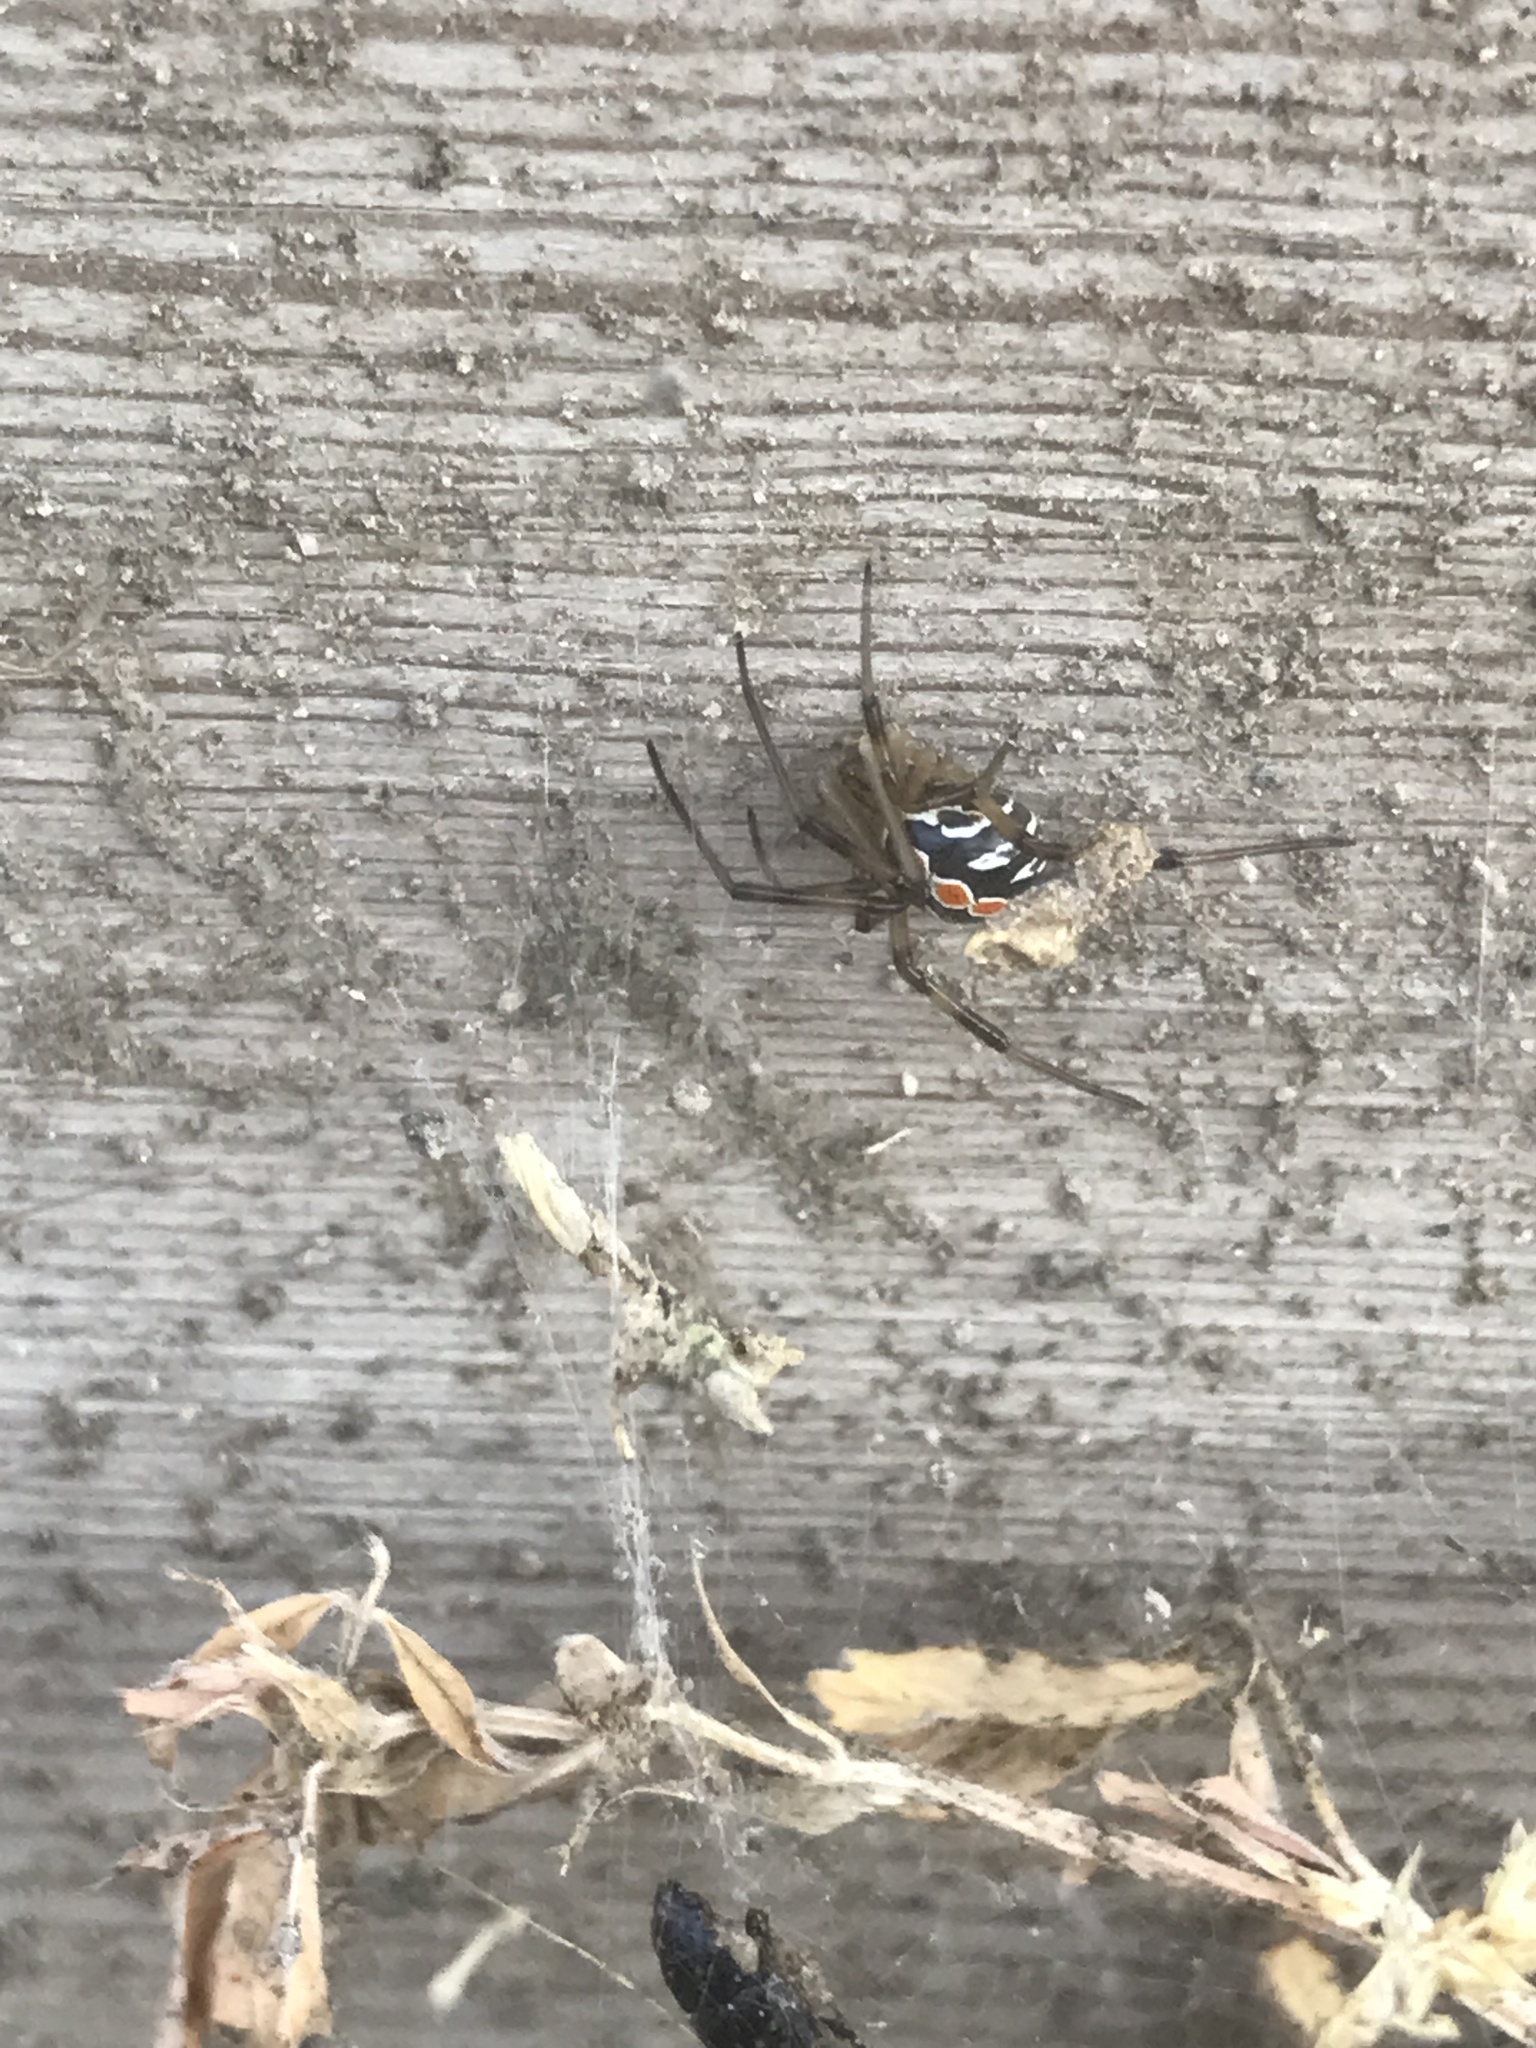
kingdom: Animalia
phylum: Arthropoda
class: Arachnida
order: Araneae
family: Theridiidae
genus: Latrodectus
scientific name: Latrodectus hesperus
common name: Western black widow
